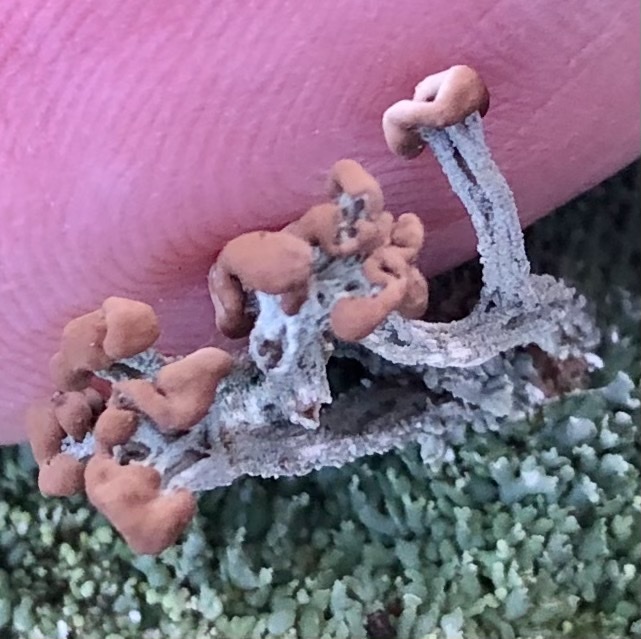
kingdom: Fungi
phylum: Ascomycota
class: Lecanoromycetes
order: Lecanorales
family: Cladoniaceae
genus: Cladonia
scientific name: Cladonia peziziformis
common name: Cup lichen
